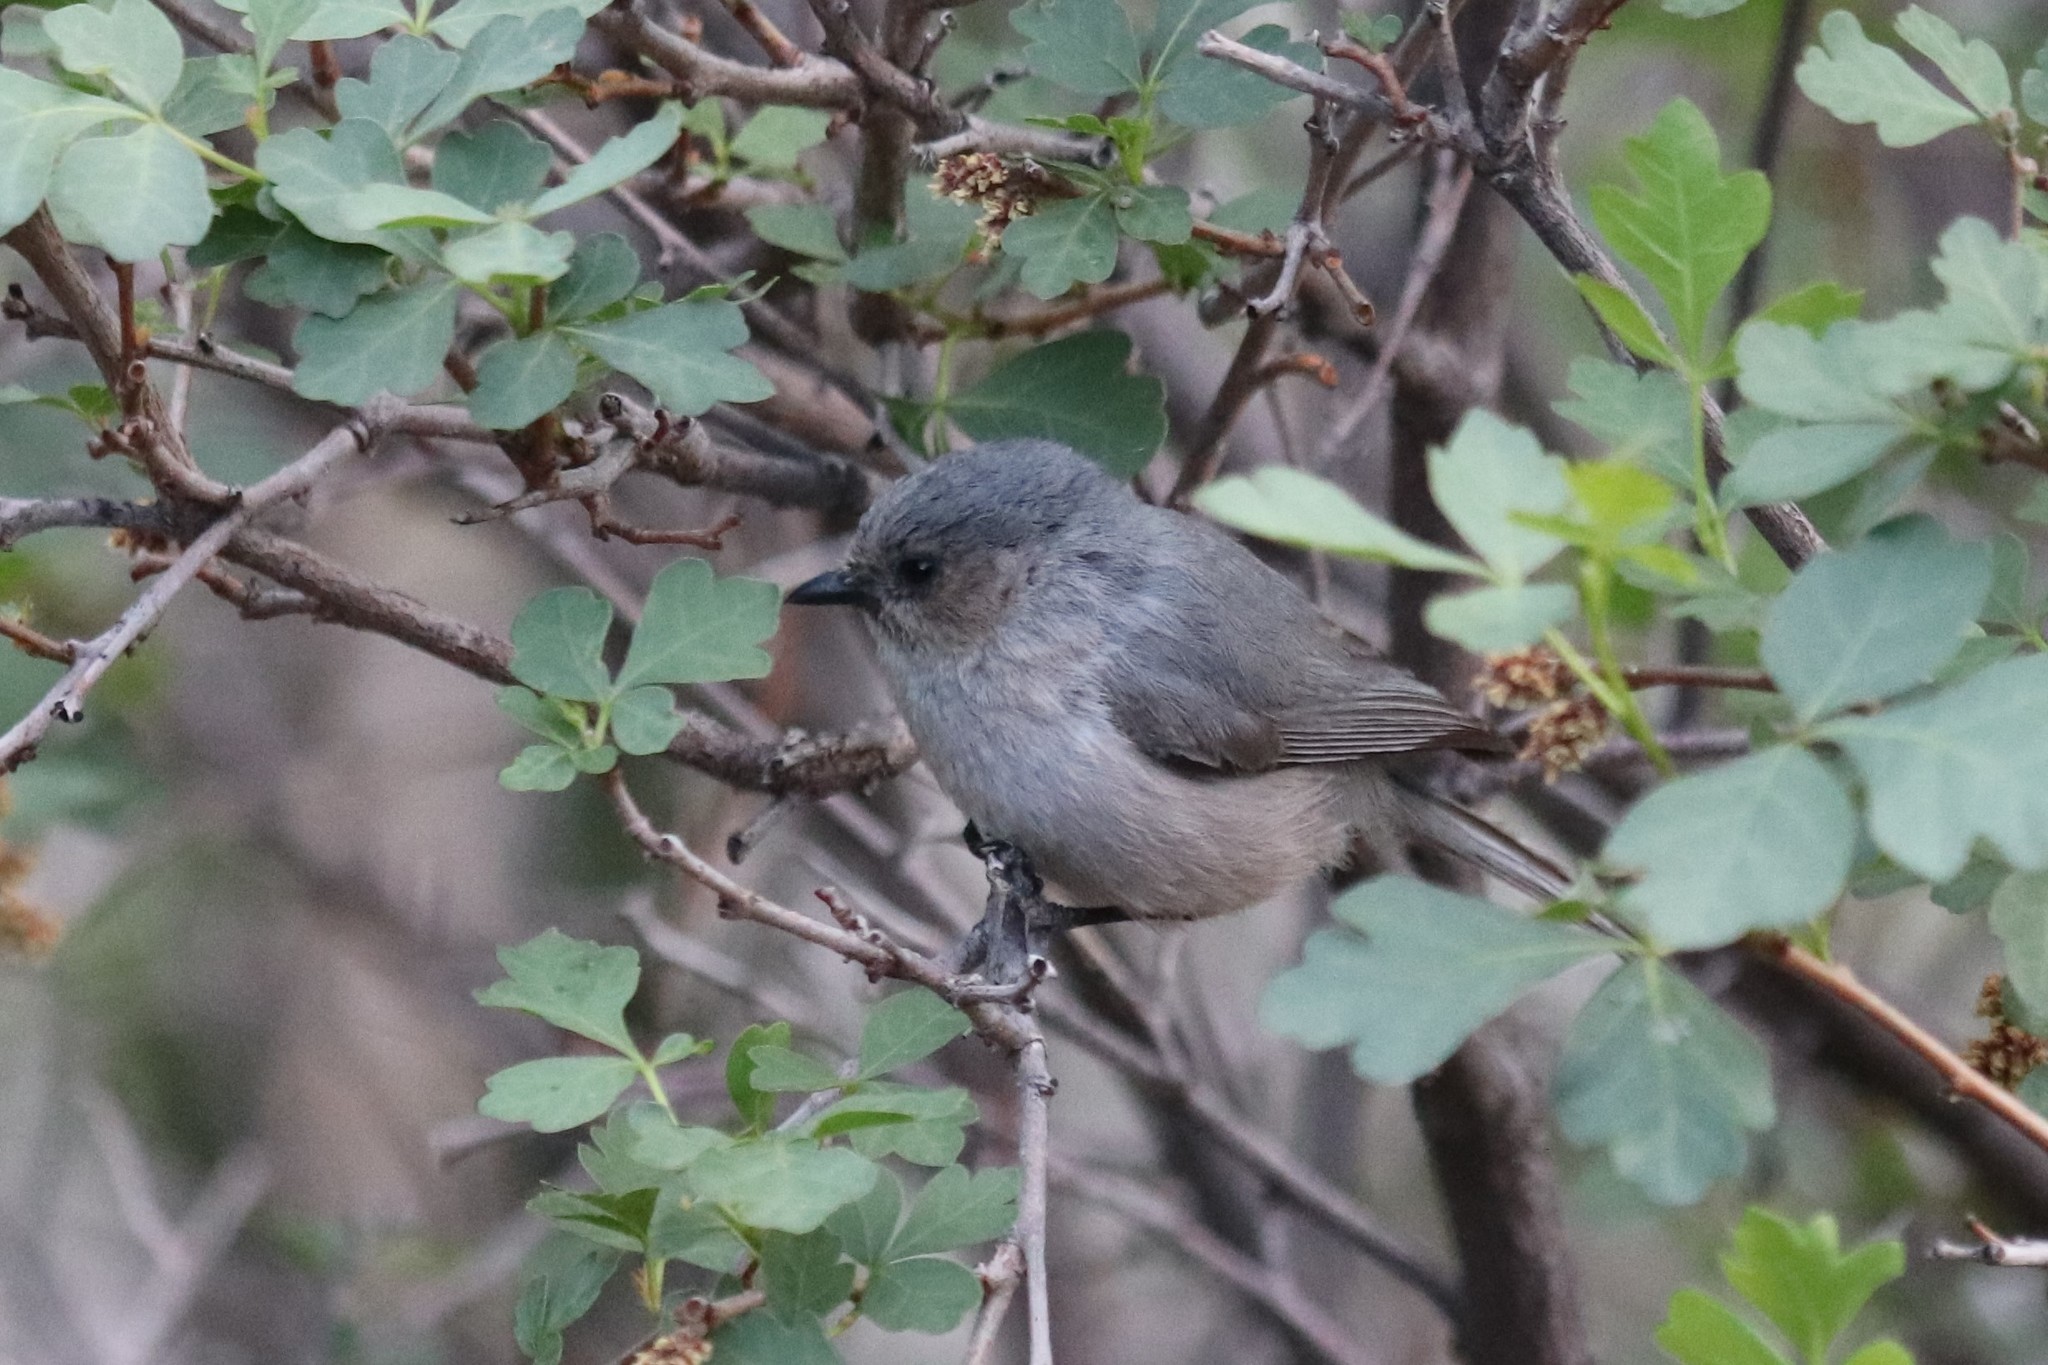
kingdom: Animalia
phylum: Chordata
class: Aves
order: Passeriformes
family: Aegithalidae
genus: Psaltriparus
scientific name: Psaltriparus minimus
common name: American bushtit
